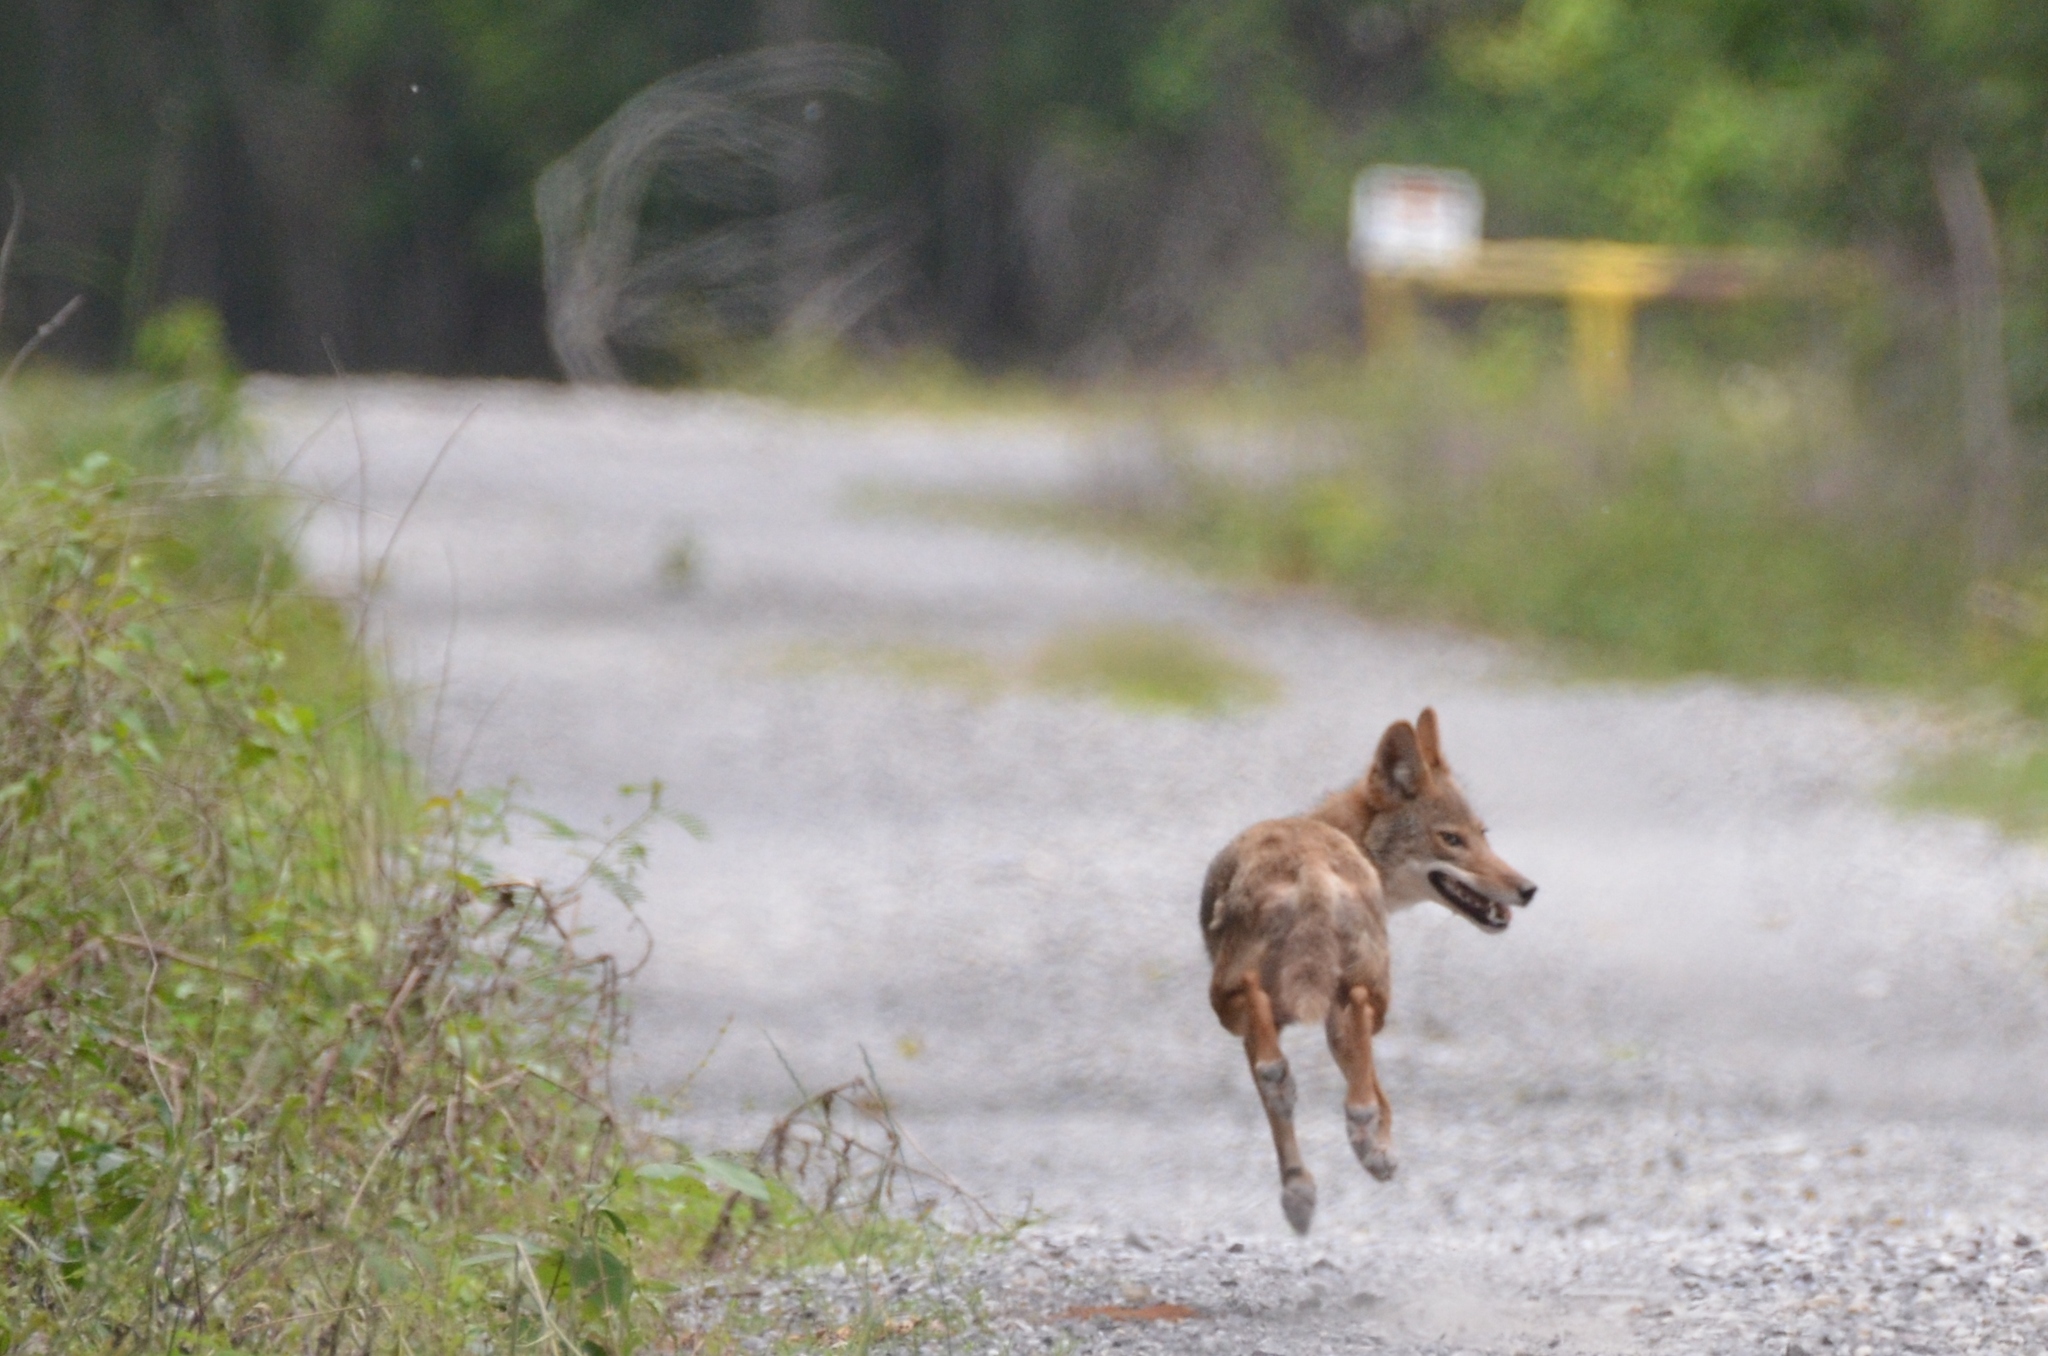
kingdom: Animalia
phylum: Chordata
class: Mammalia
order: Carnivora
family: Canidae
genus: Canis
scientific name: Canis latrans
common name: Coyote
